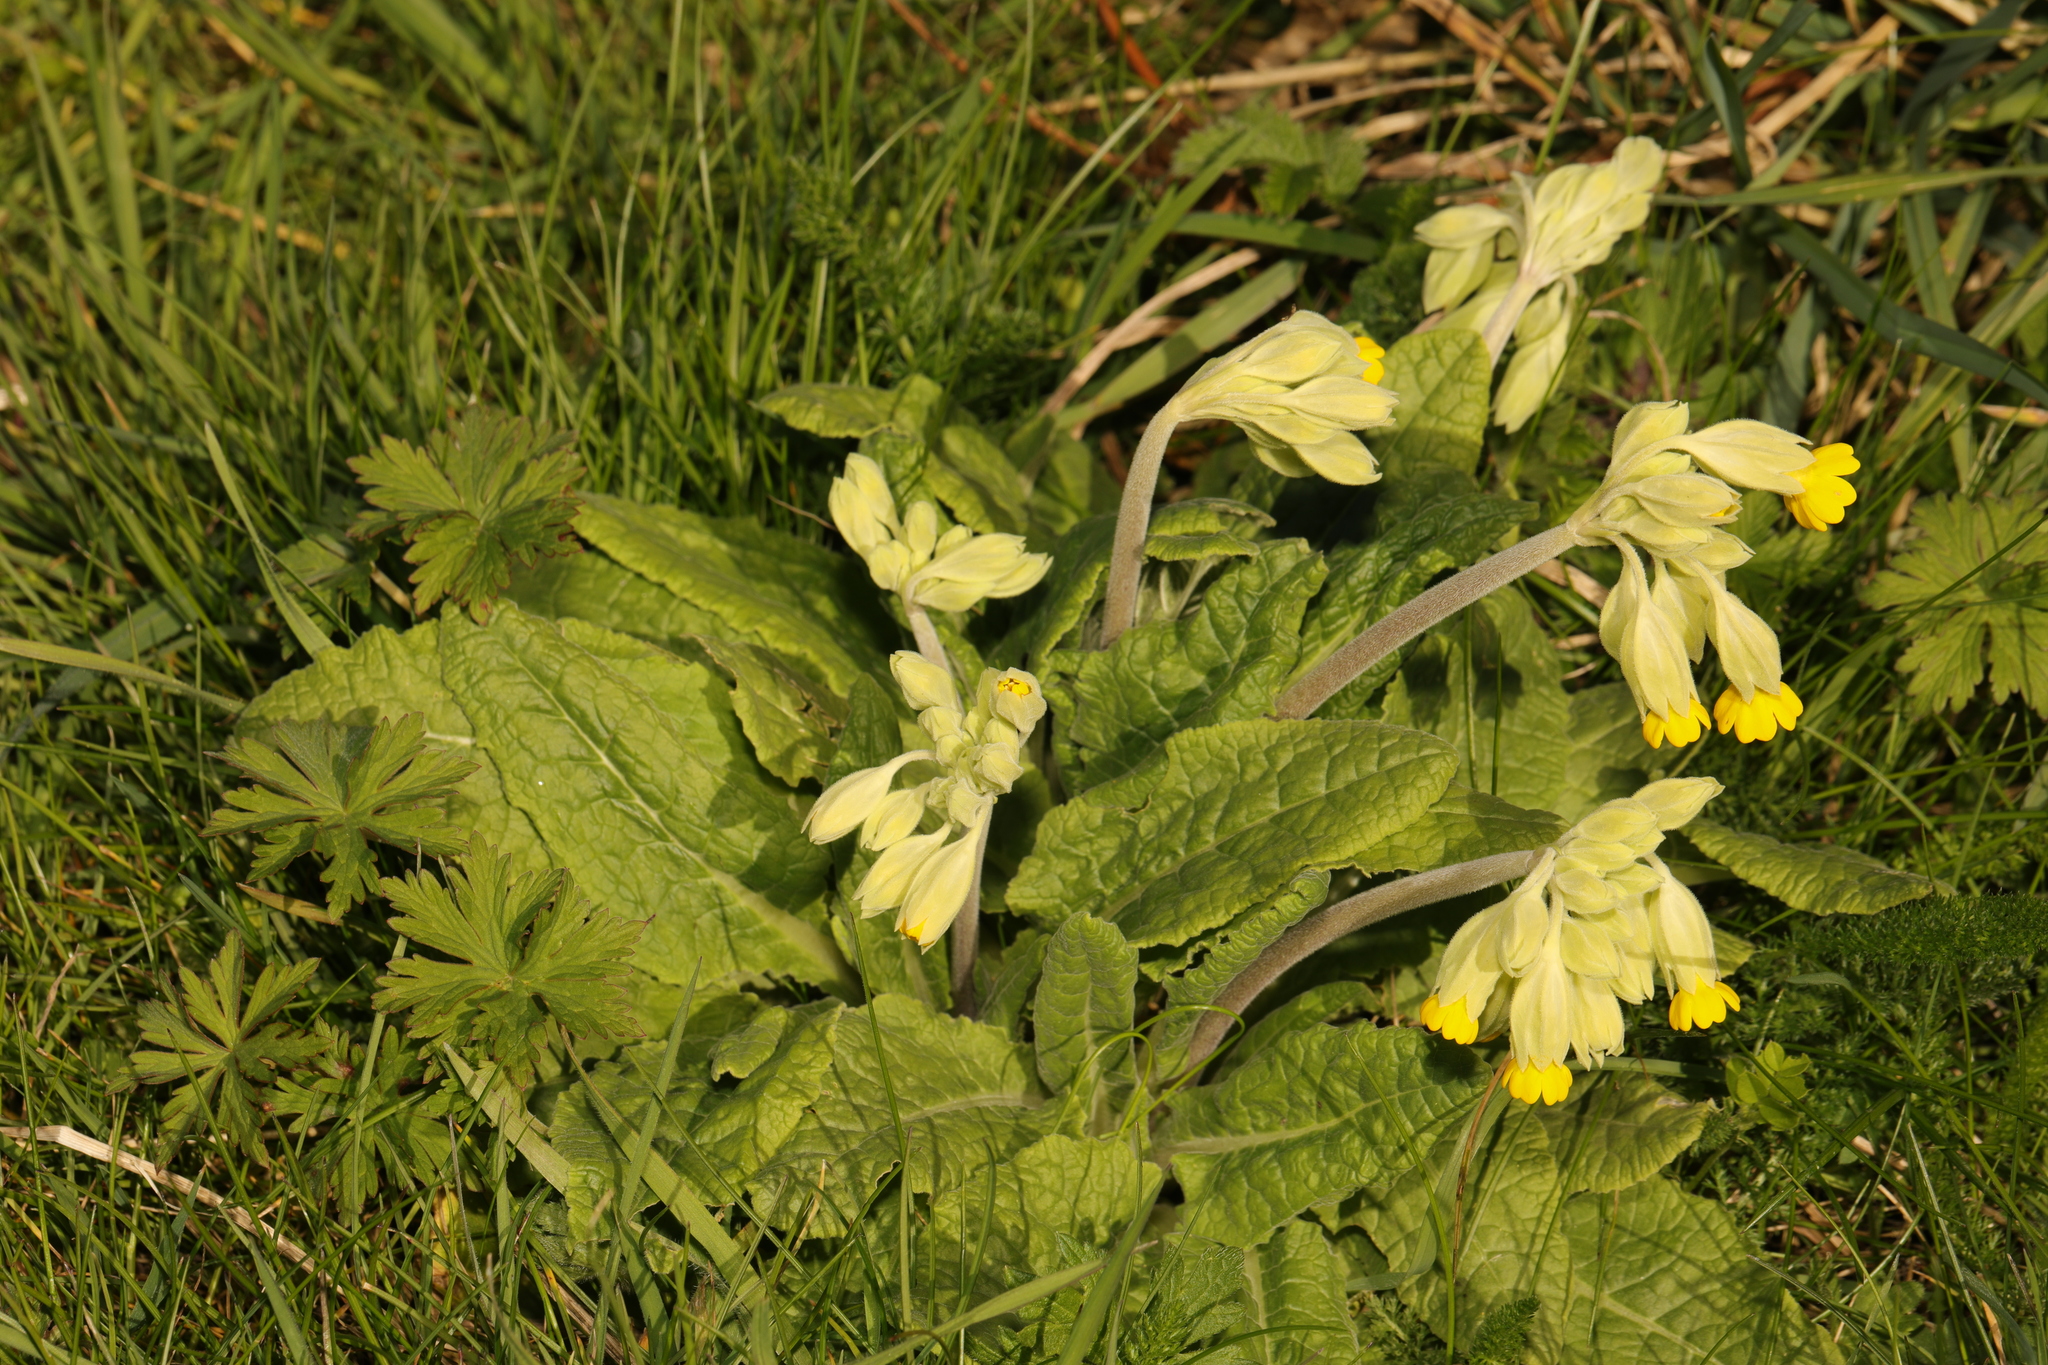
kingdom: Plantae
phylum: Tracheophyta
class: Magnoliopsida
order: Ericales
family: Primulaceae
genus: Primula
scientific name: Primula veris
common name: Cowslip
